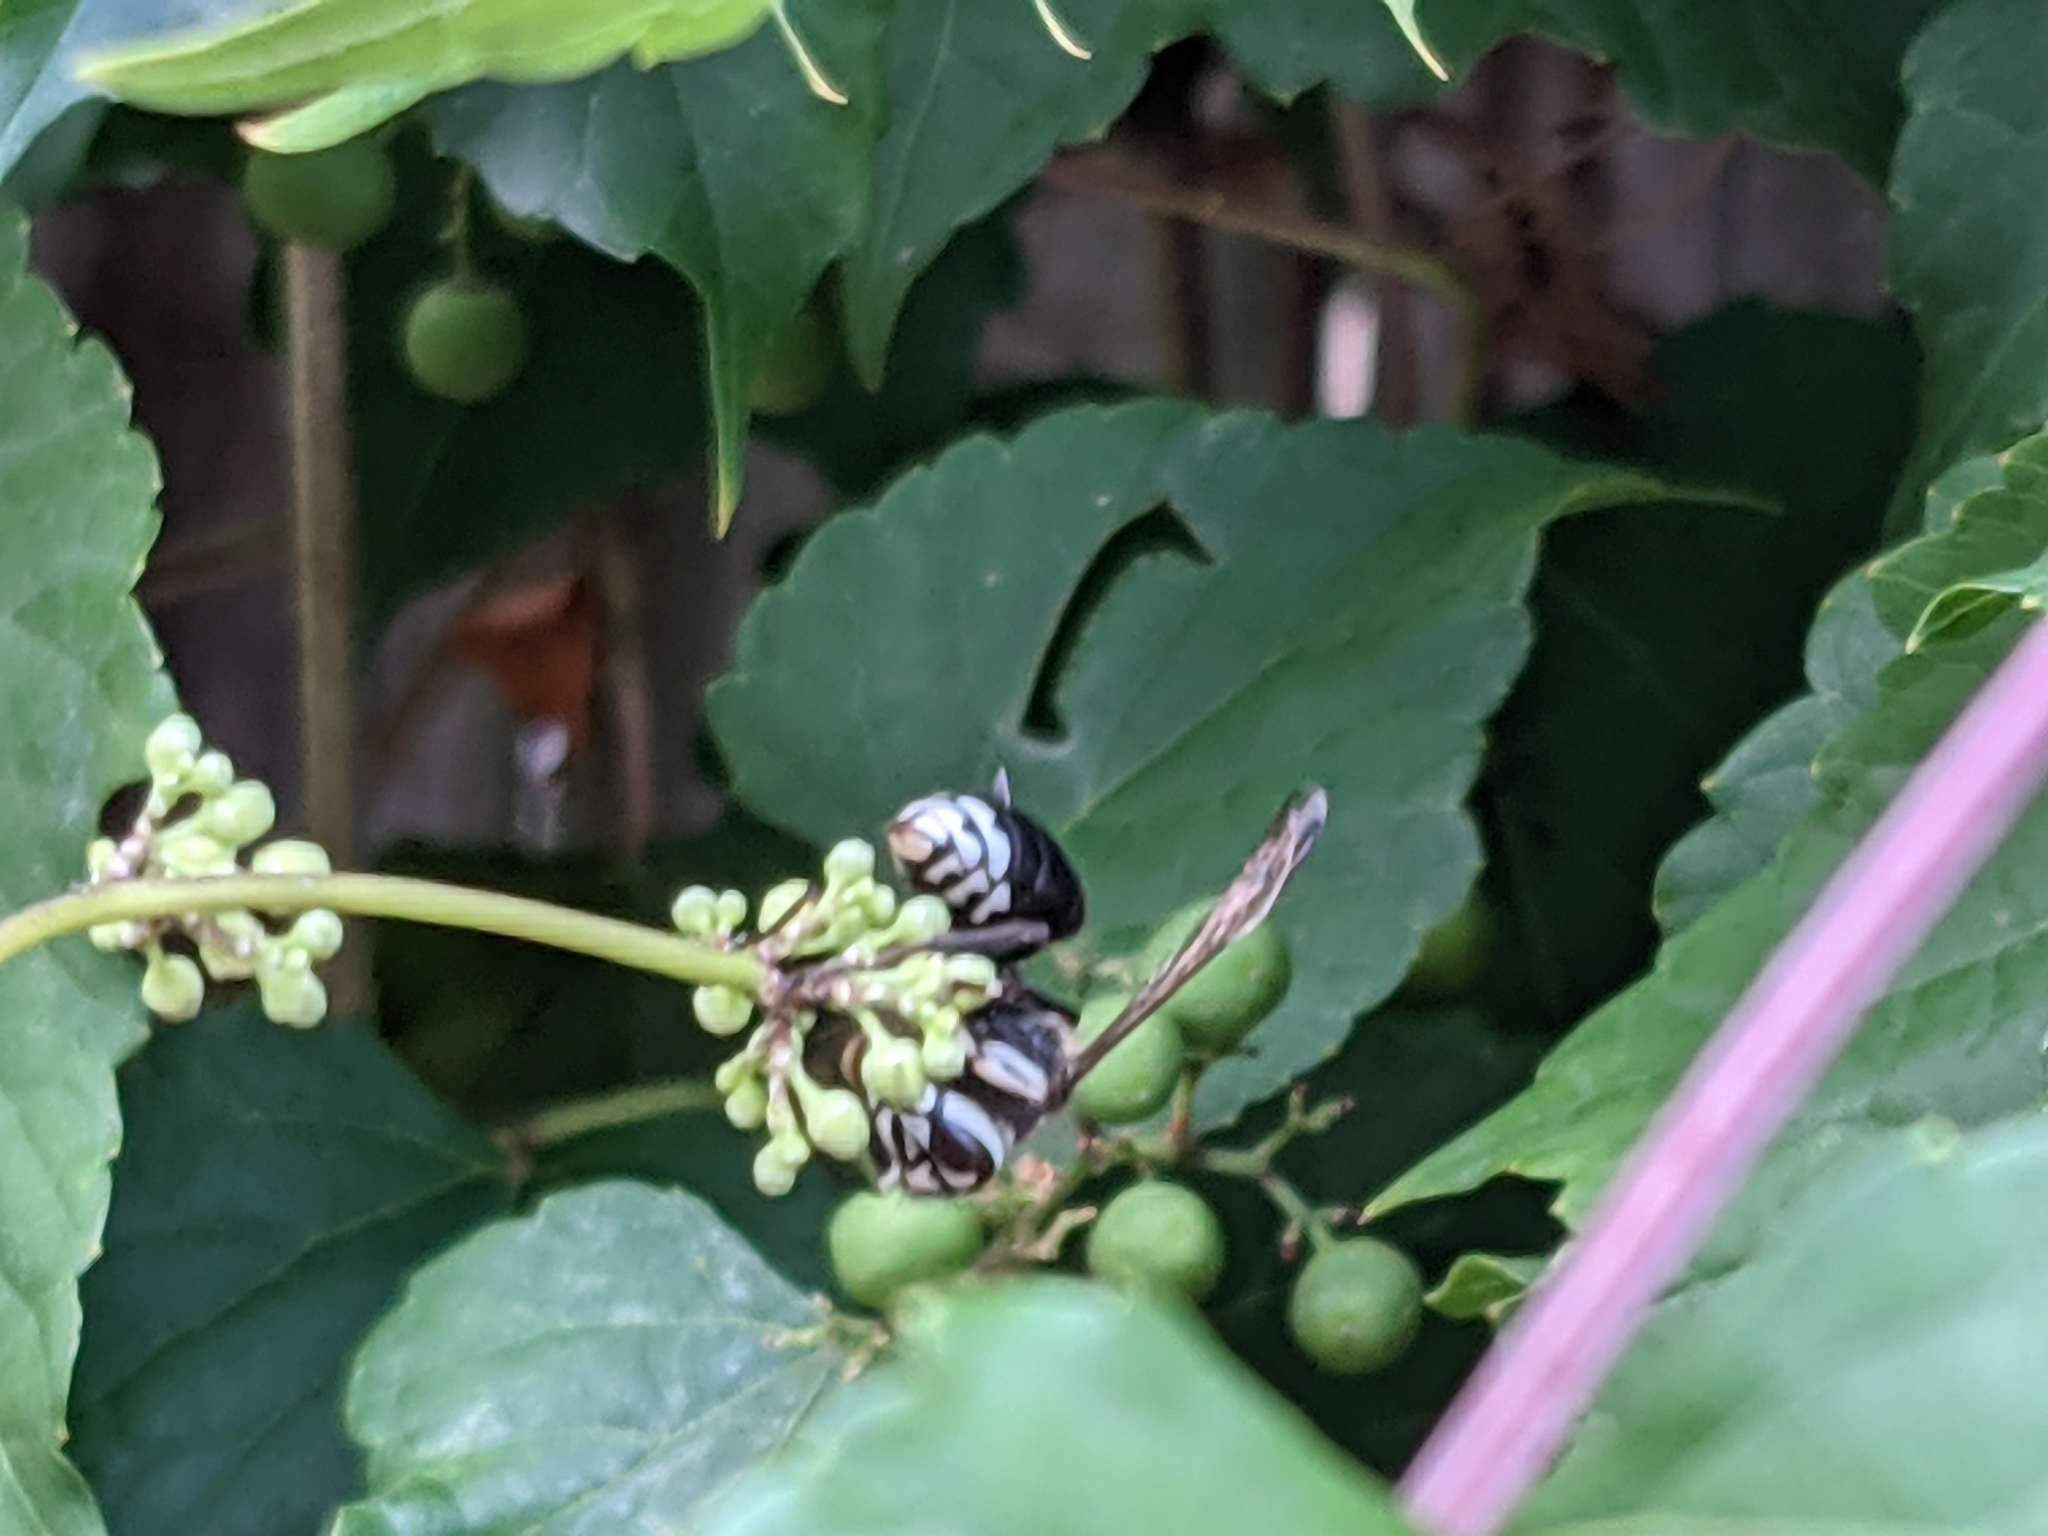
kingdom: Animalia
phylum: Arthropoda
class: Insecta
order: Hymenoptera
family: Vespidae
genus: Dolichovespula
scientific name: Dolichovespula maculata
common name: Bald-faced hornet
